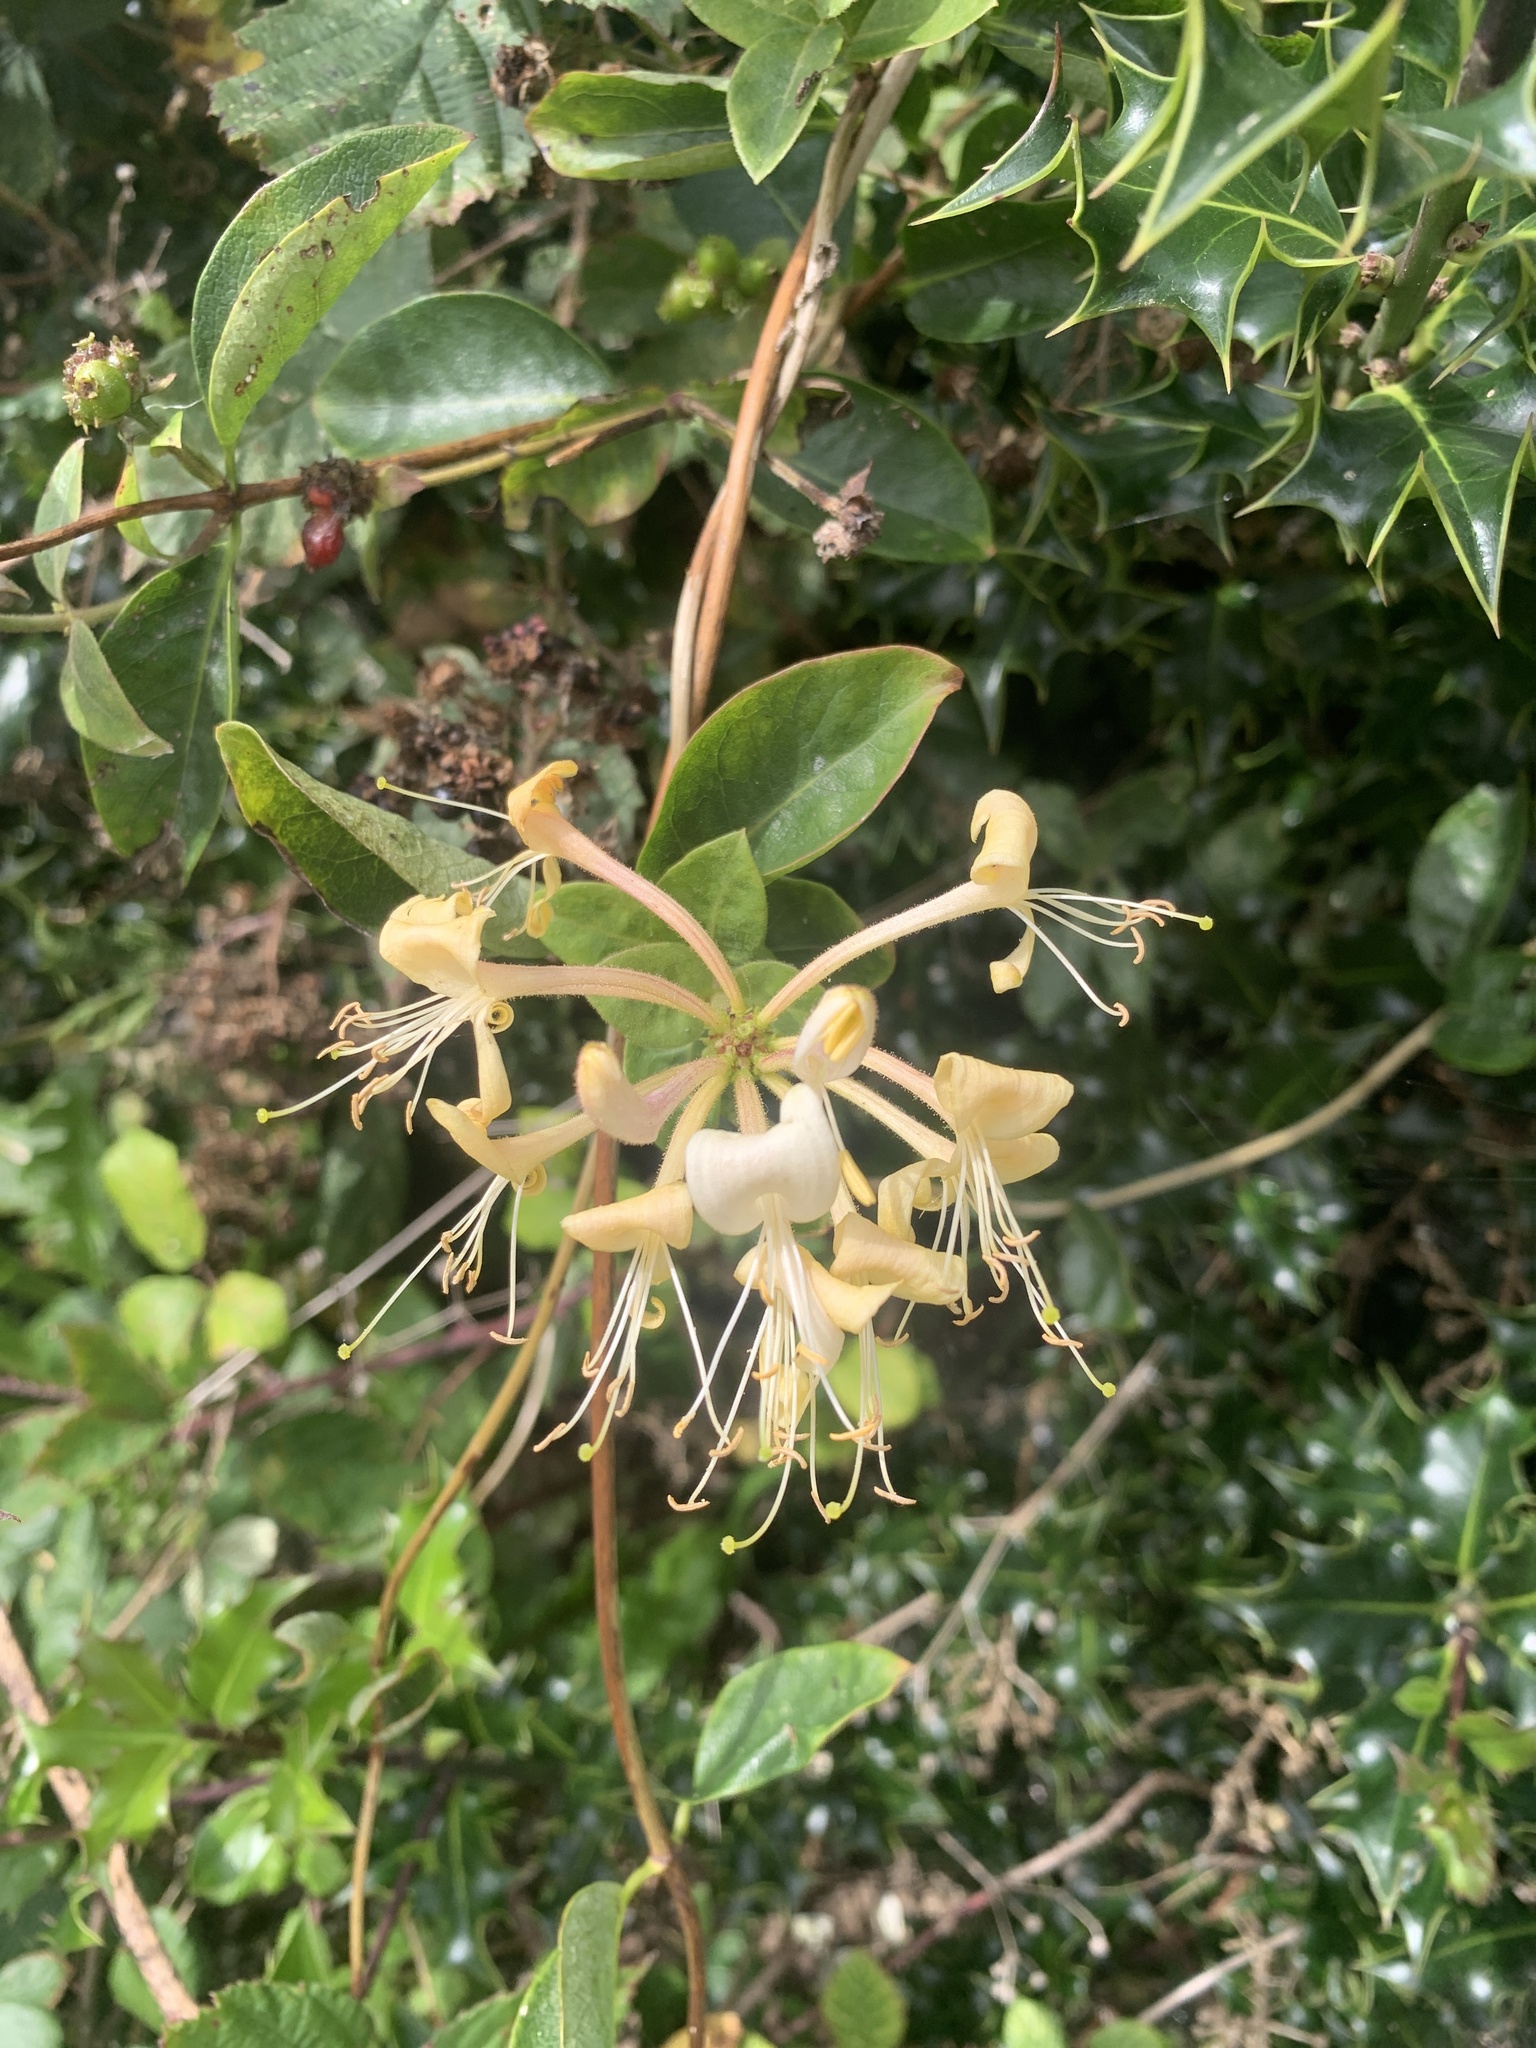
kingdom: Plantae
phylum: Tracheophyta
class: Magnoliopsida
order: Dipsacales
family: Caprifoliaceae
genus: Lonicera
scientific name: Lonicera periclymenum
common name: European honeysuckle
